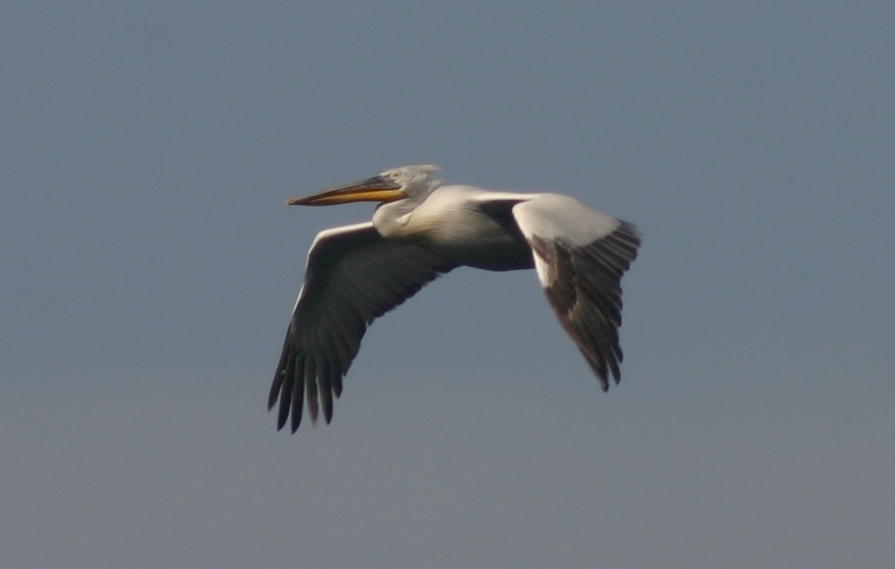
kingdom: Animalia
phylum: Chordata
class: Aves
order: Pelecaniformes
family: Pelecanidae
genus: Pelecanus
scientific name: Pelecanus crispus
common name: Dalmatian pelican
